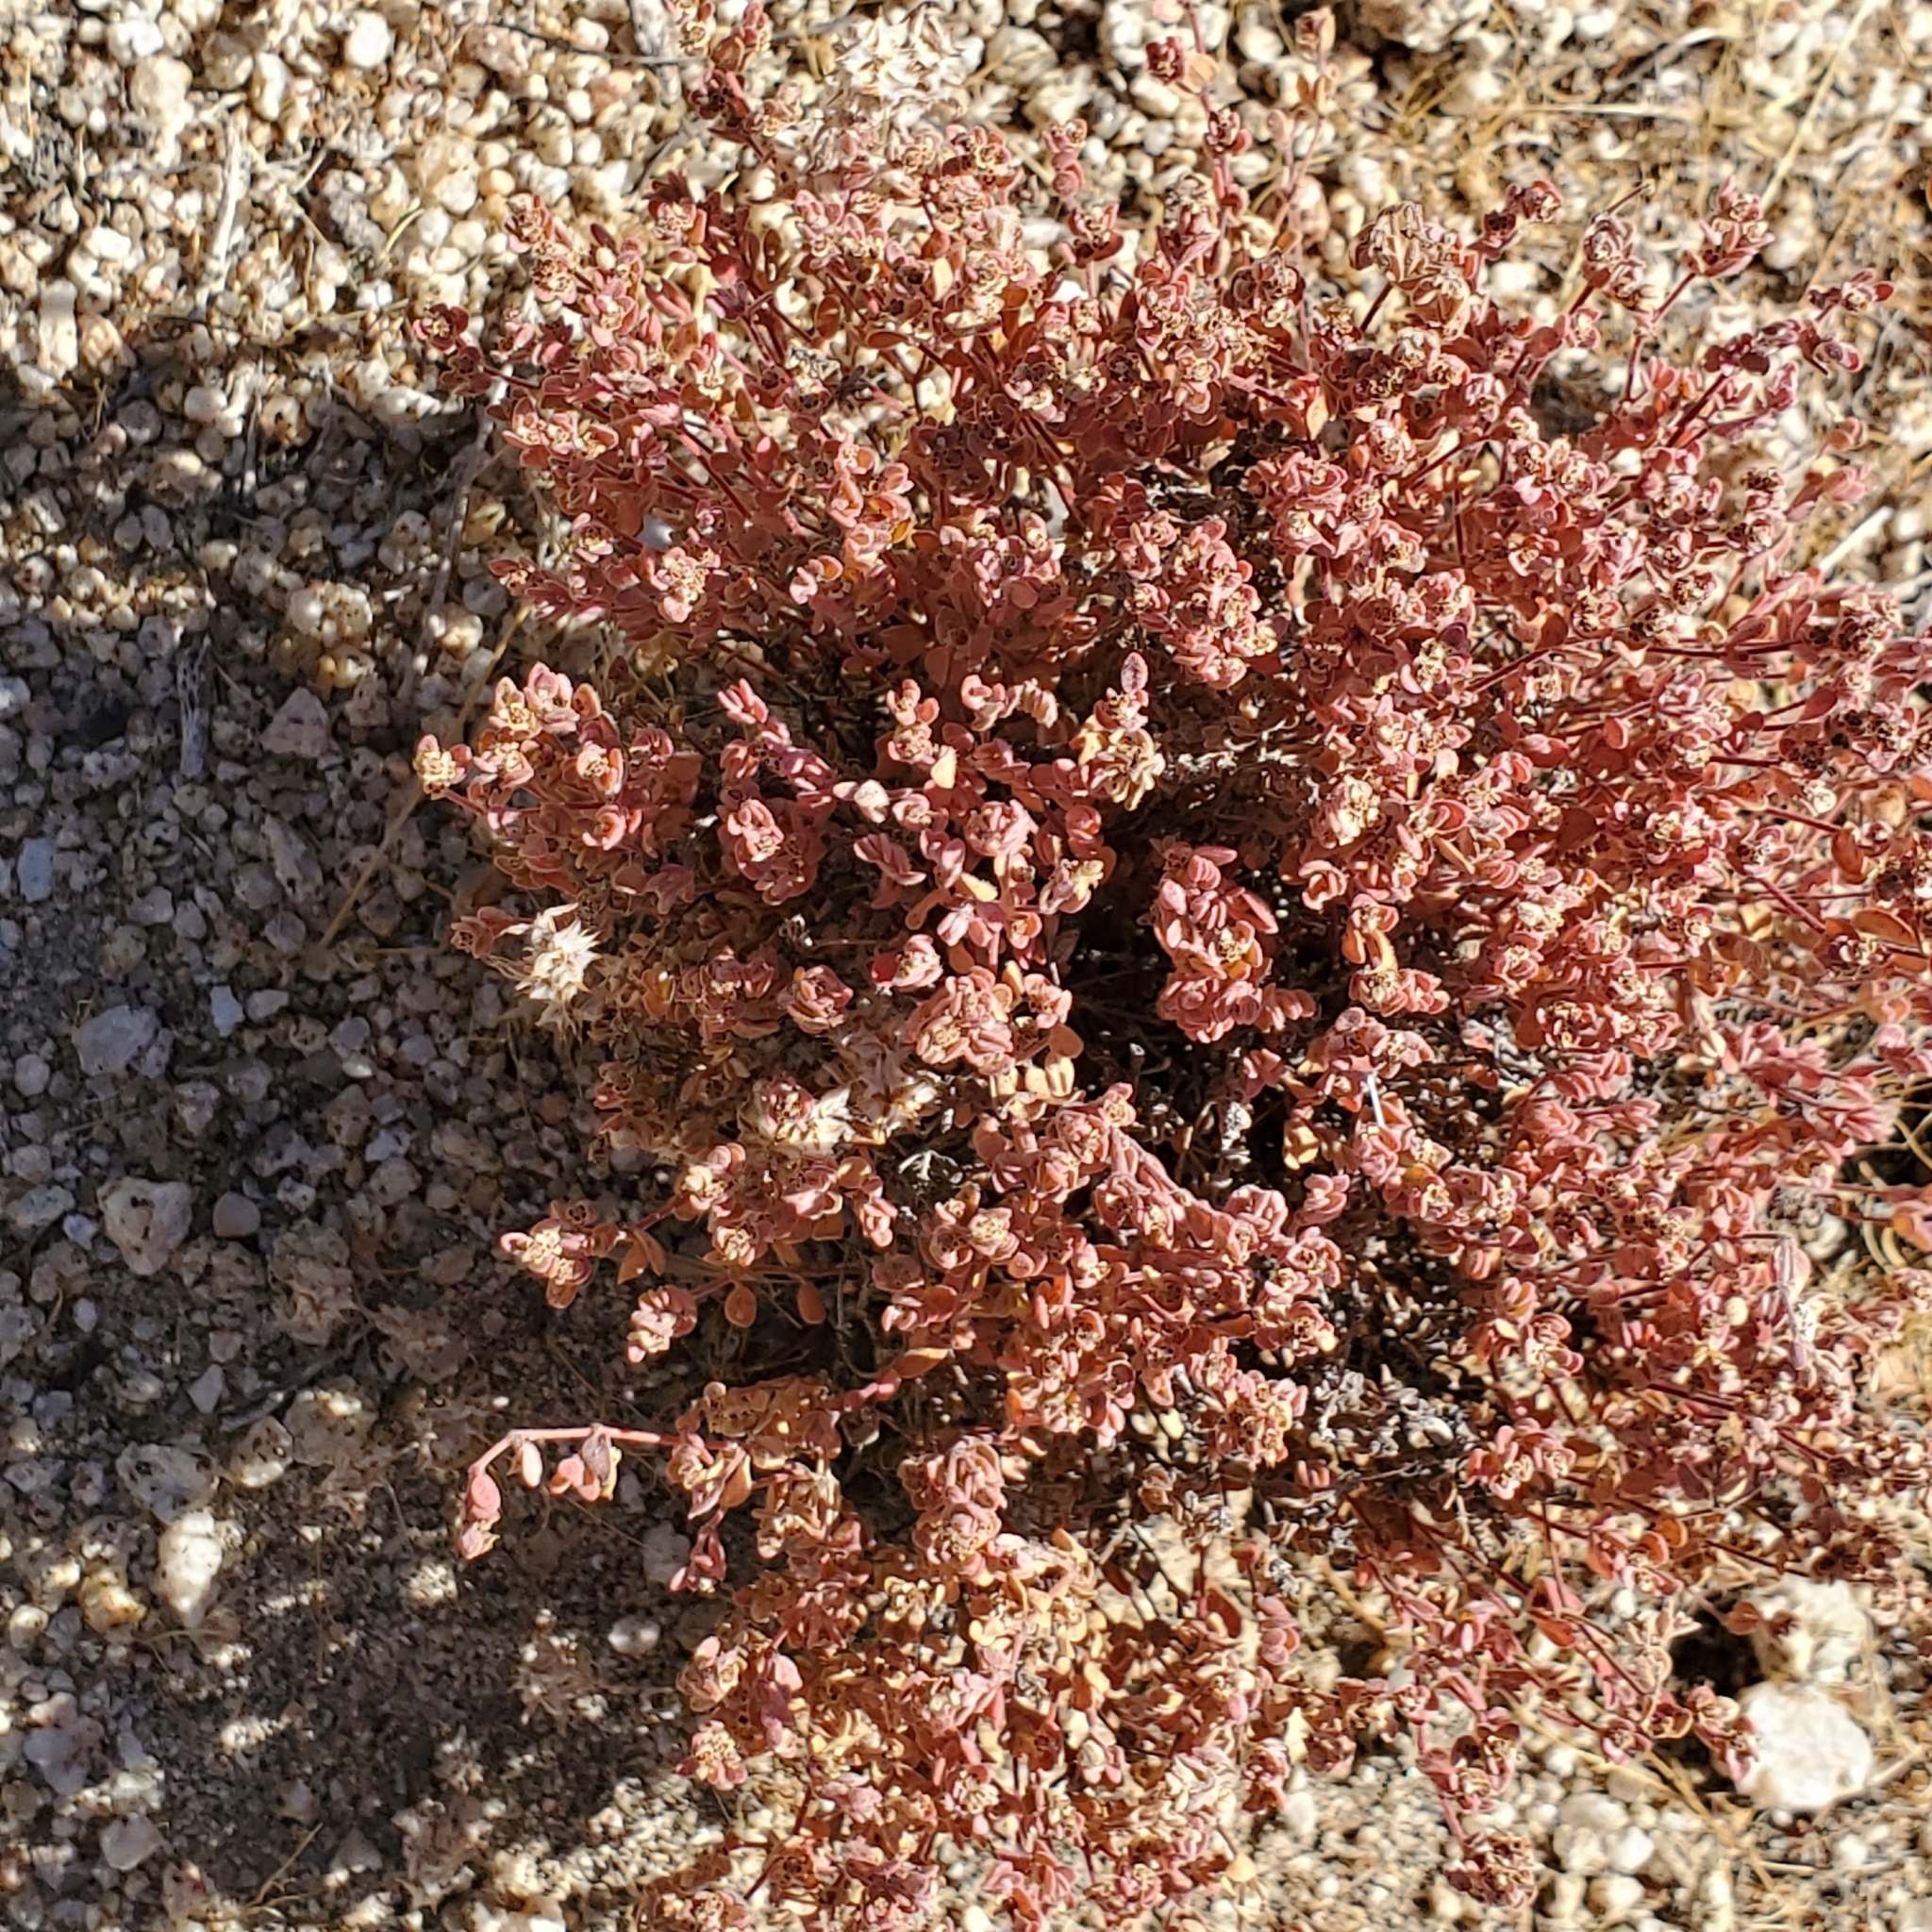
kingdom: Plantae
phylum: Tracheophyta
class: Magnoliopsida
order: Malpighiales
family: Euphorbiaceae
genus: Euphorbia
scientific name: Euphorbia melanadenia
